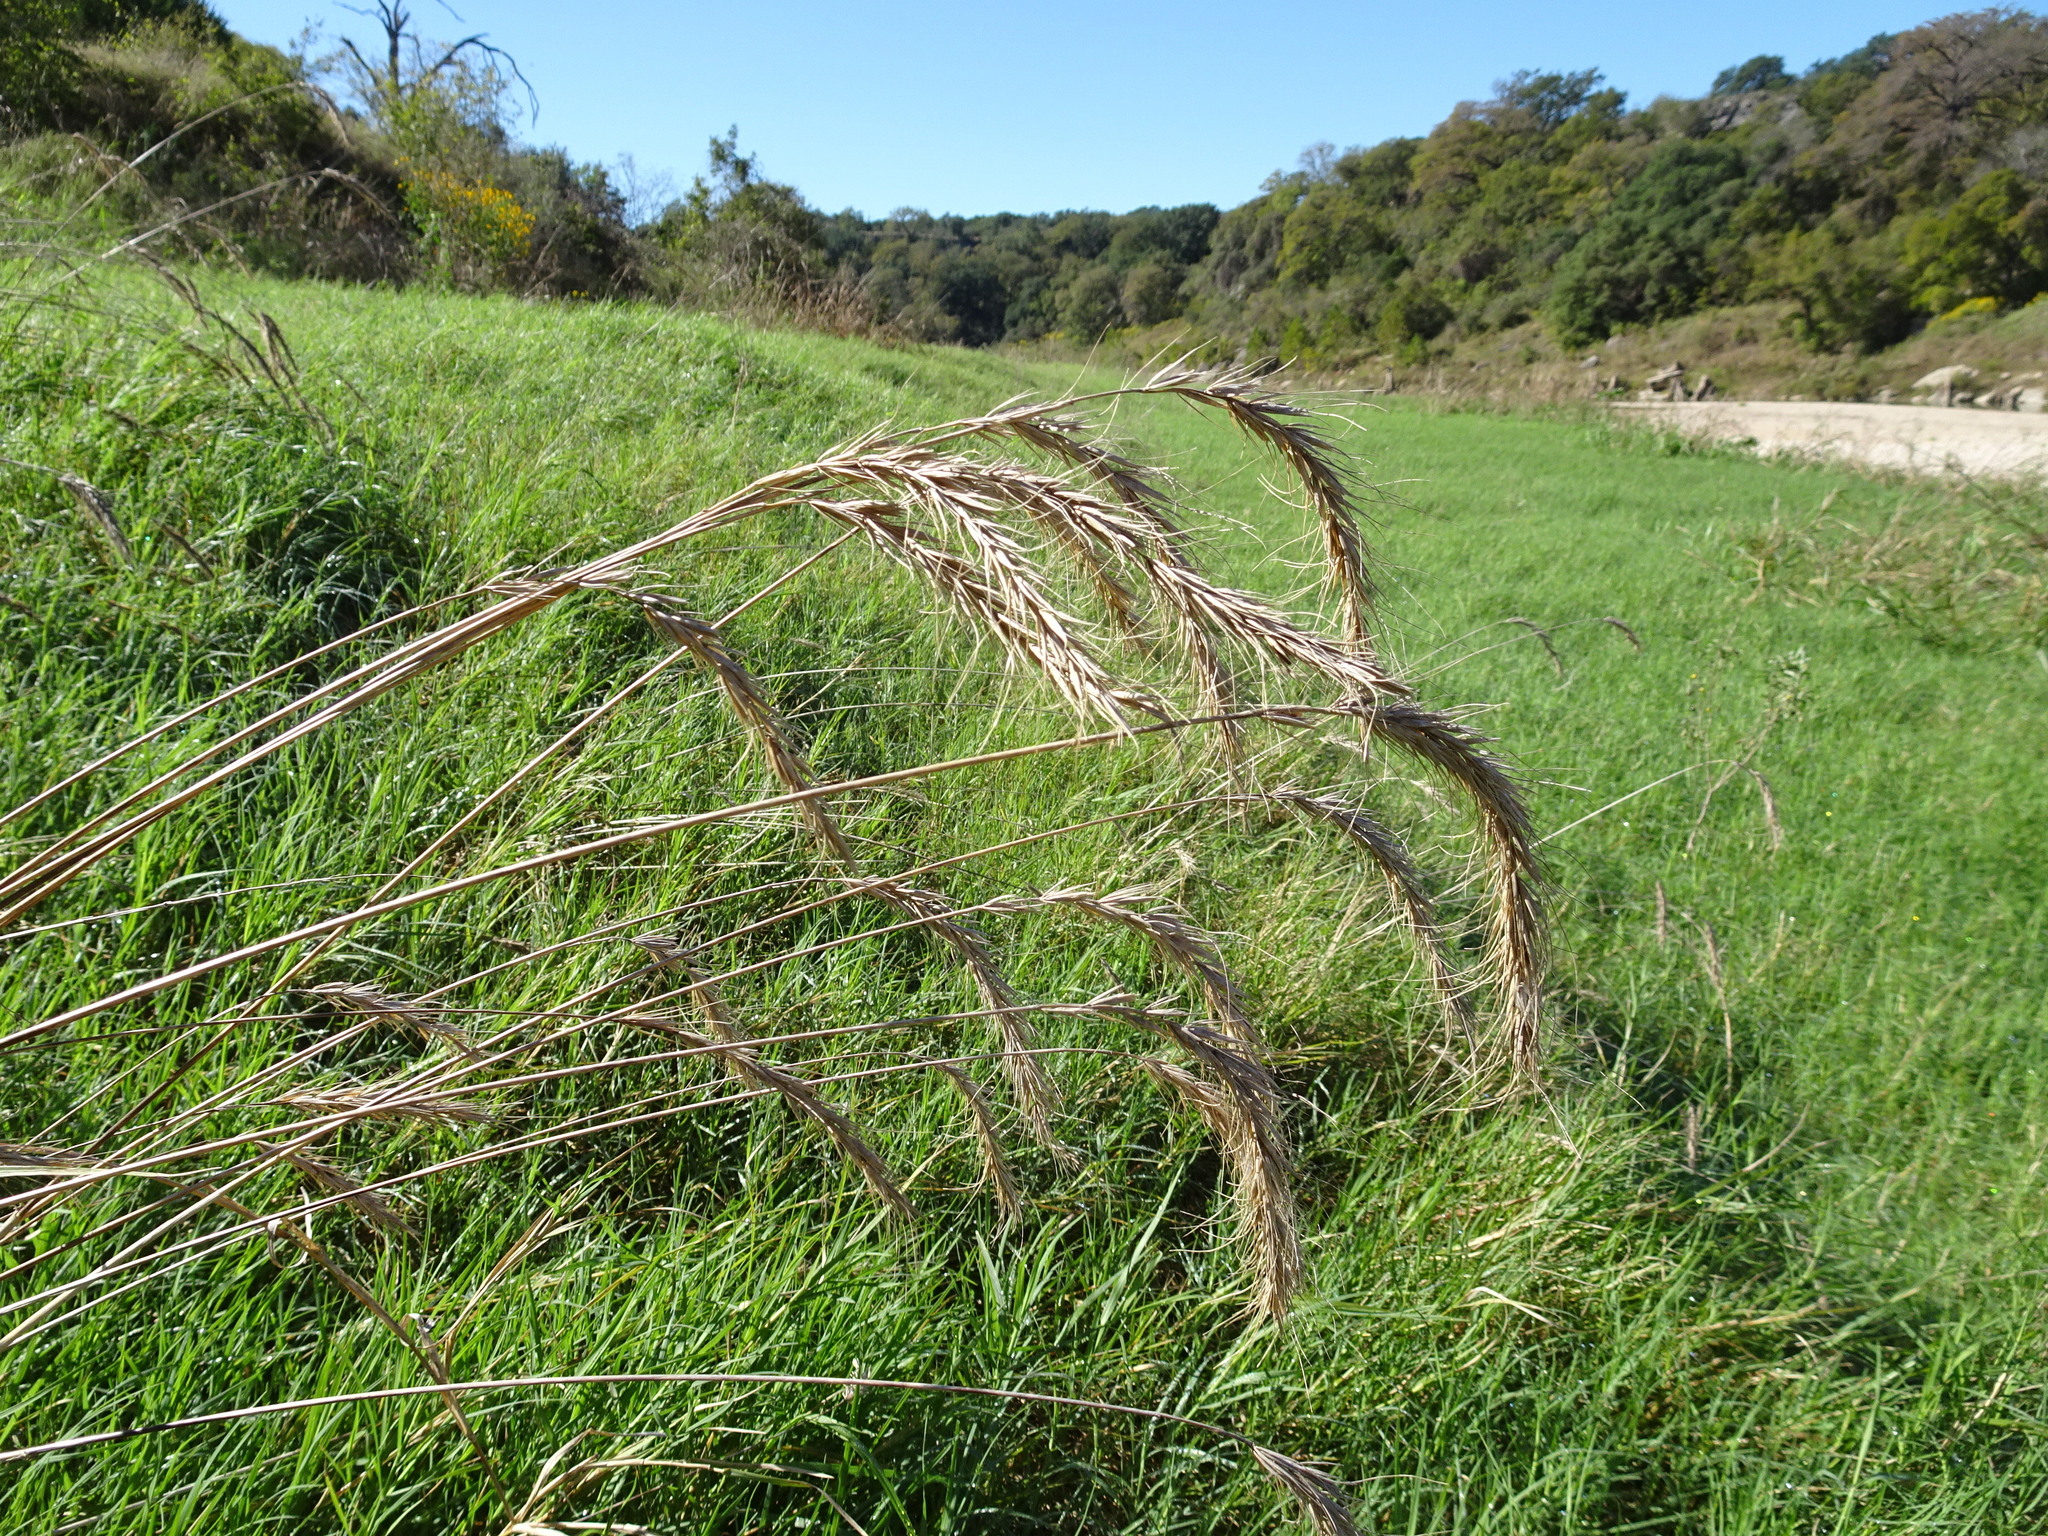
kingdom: Plantae
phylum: Tracheophyta
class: Liliopsida
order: Poales
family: Poaceae
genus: Elymus
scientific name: Elymus canadensis
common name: Canada wild rye
